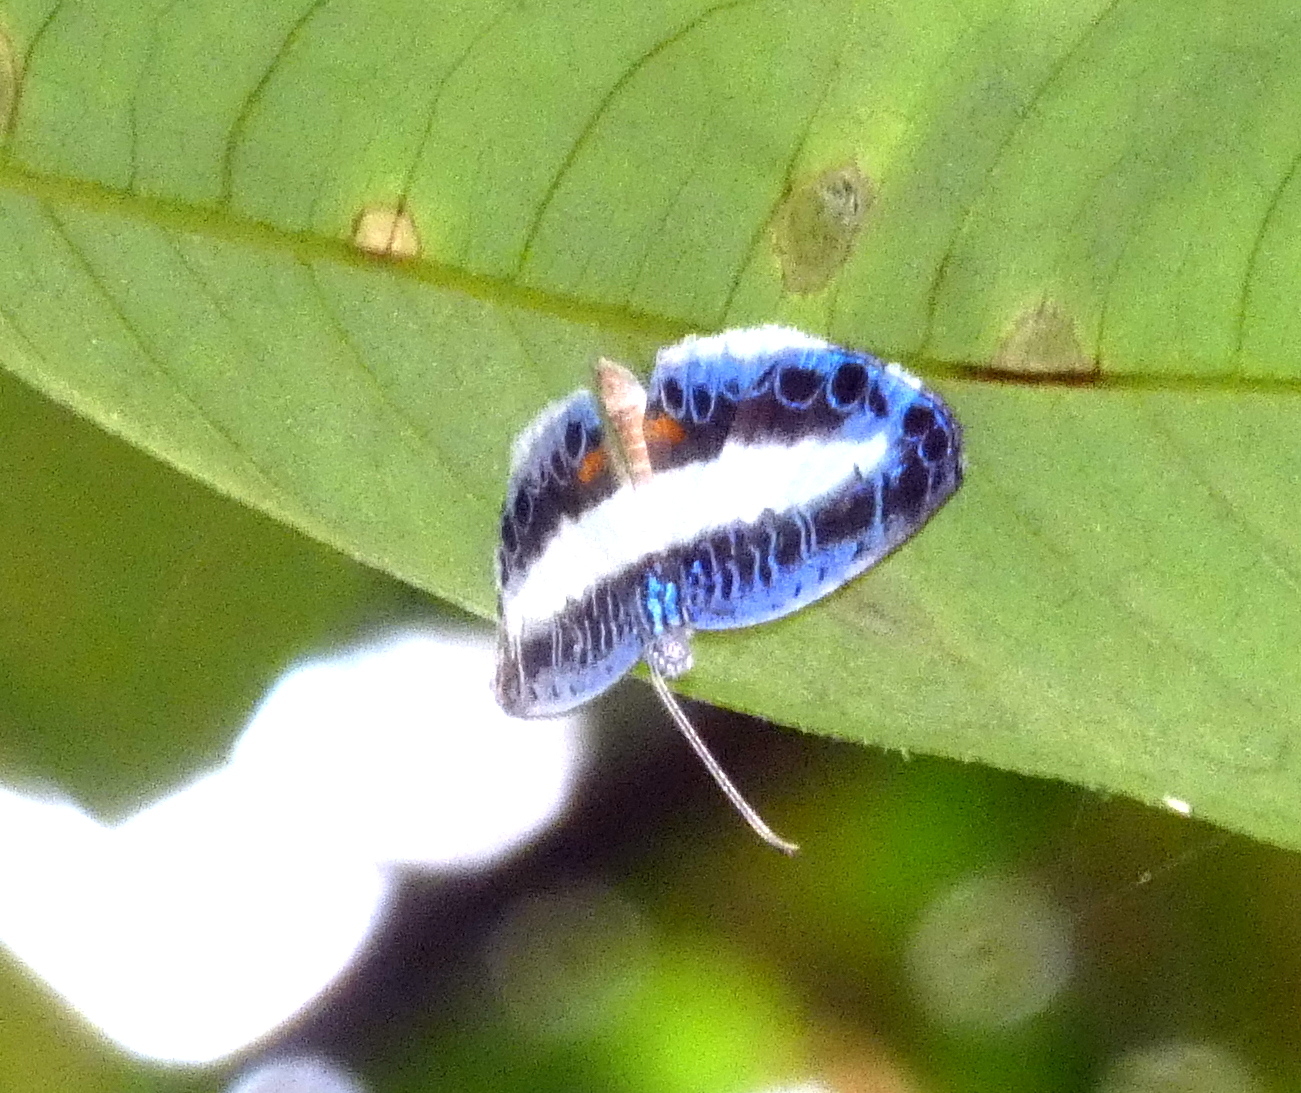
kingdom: Animalia
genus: Nymphidium
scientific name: Nymphidium mantus
